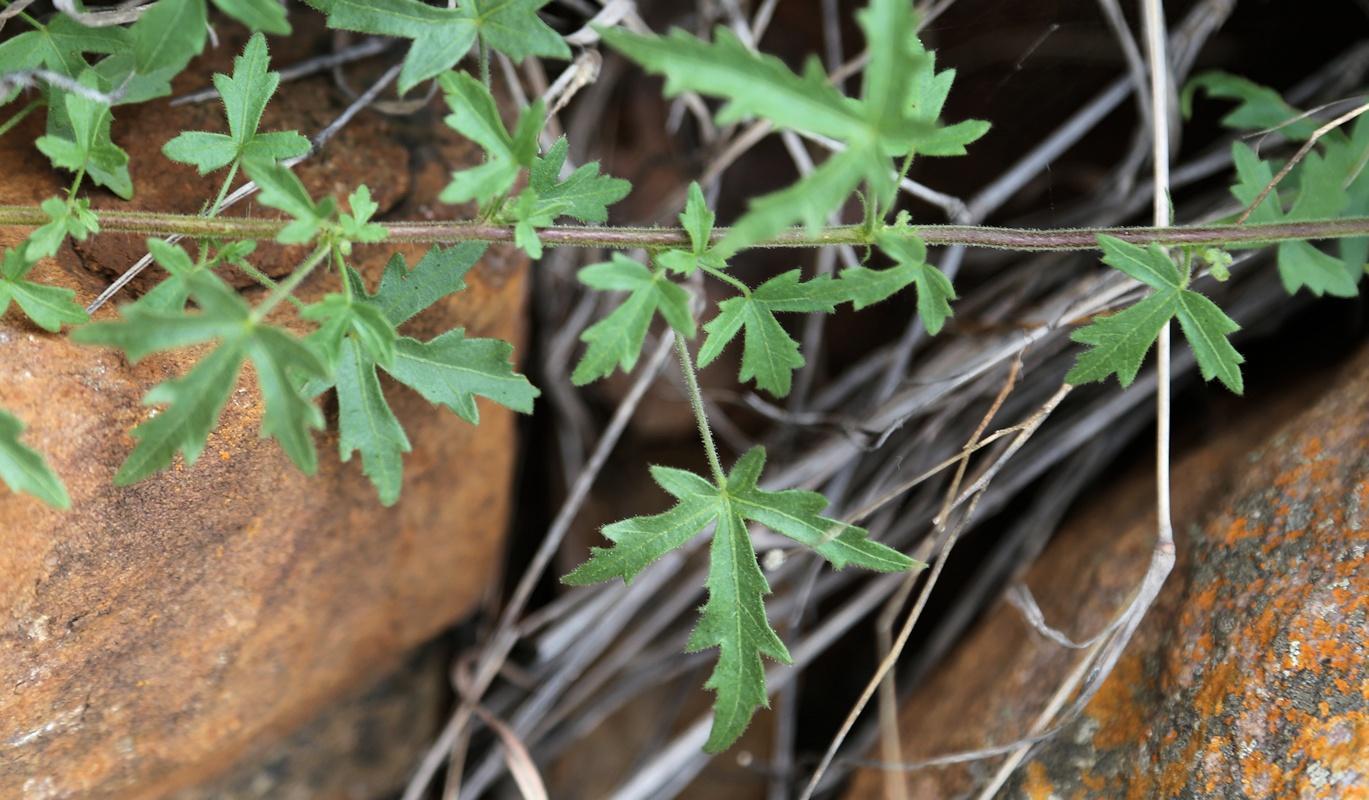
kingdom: Plantae
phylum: Tracheophyta
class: Magnoliopsida
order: Malvales
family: Malvaceae
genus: Pavonia
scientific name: Pavonia transvaalensis
